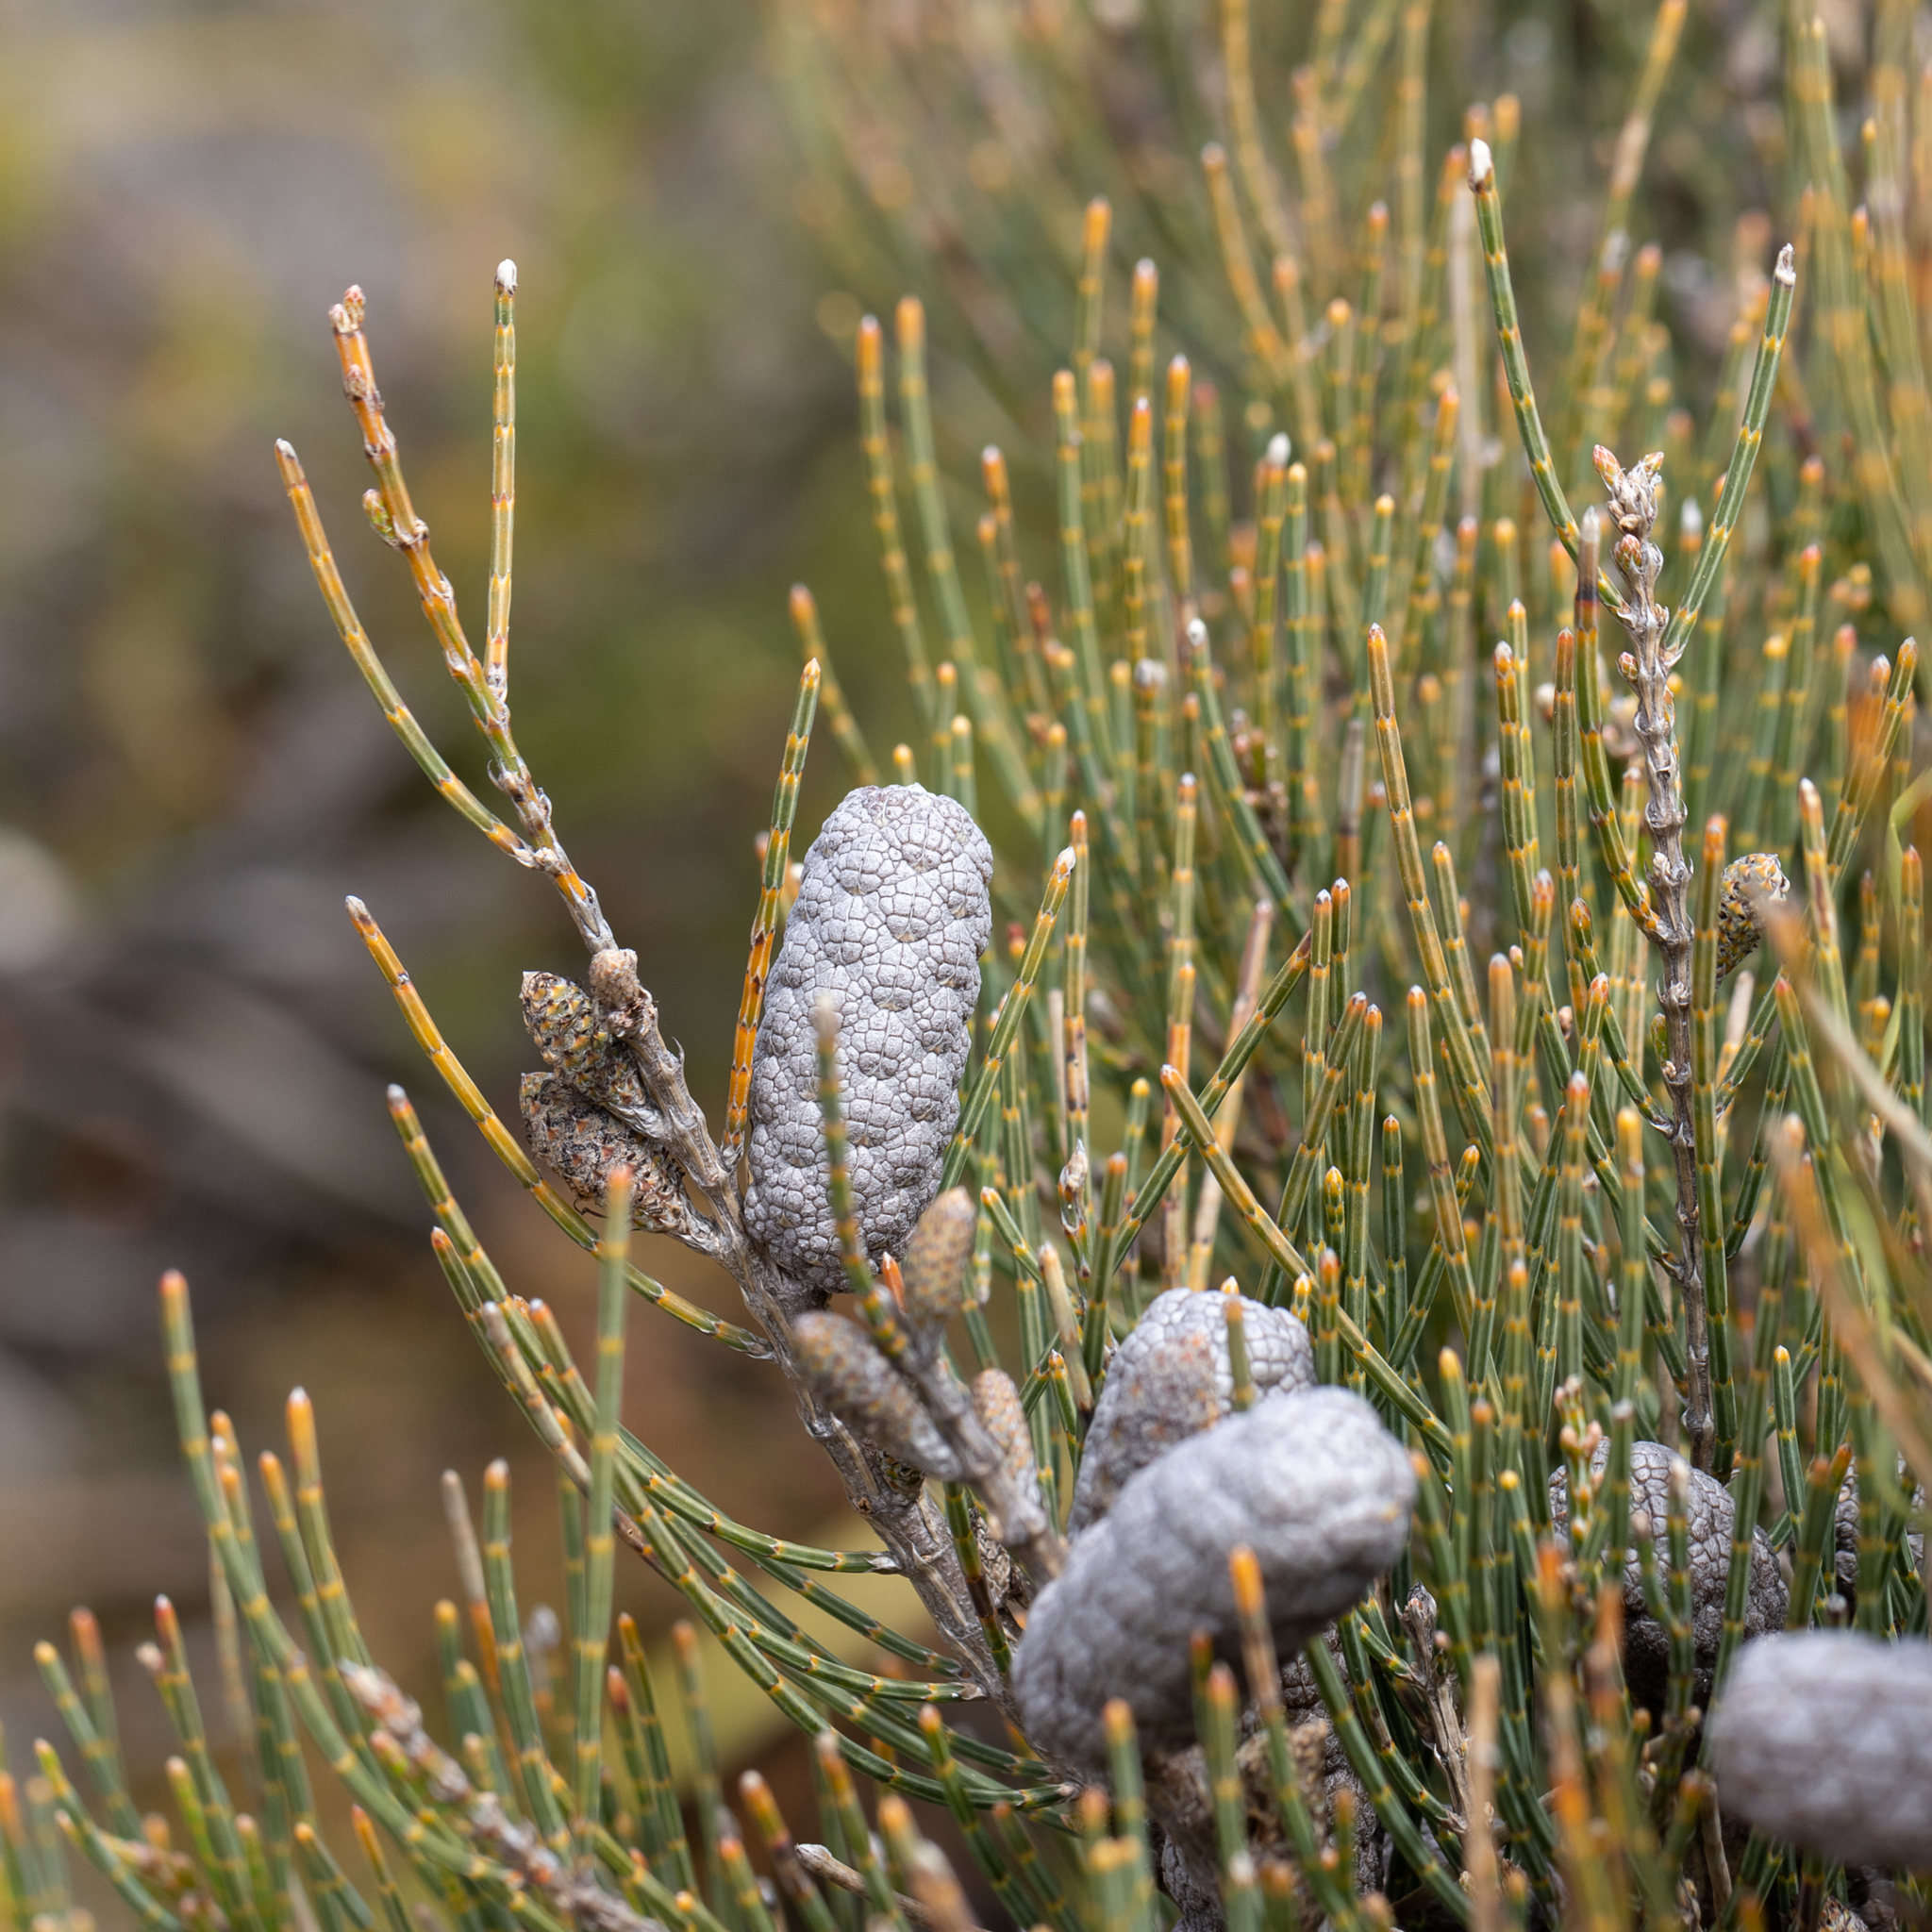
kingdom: Plantae
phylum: Tracheophyta
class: Magnoliopsida
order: Fagales
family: Casuarinaceae
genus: Allocasuarina
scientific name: Allocasuarina humilis
